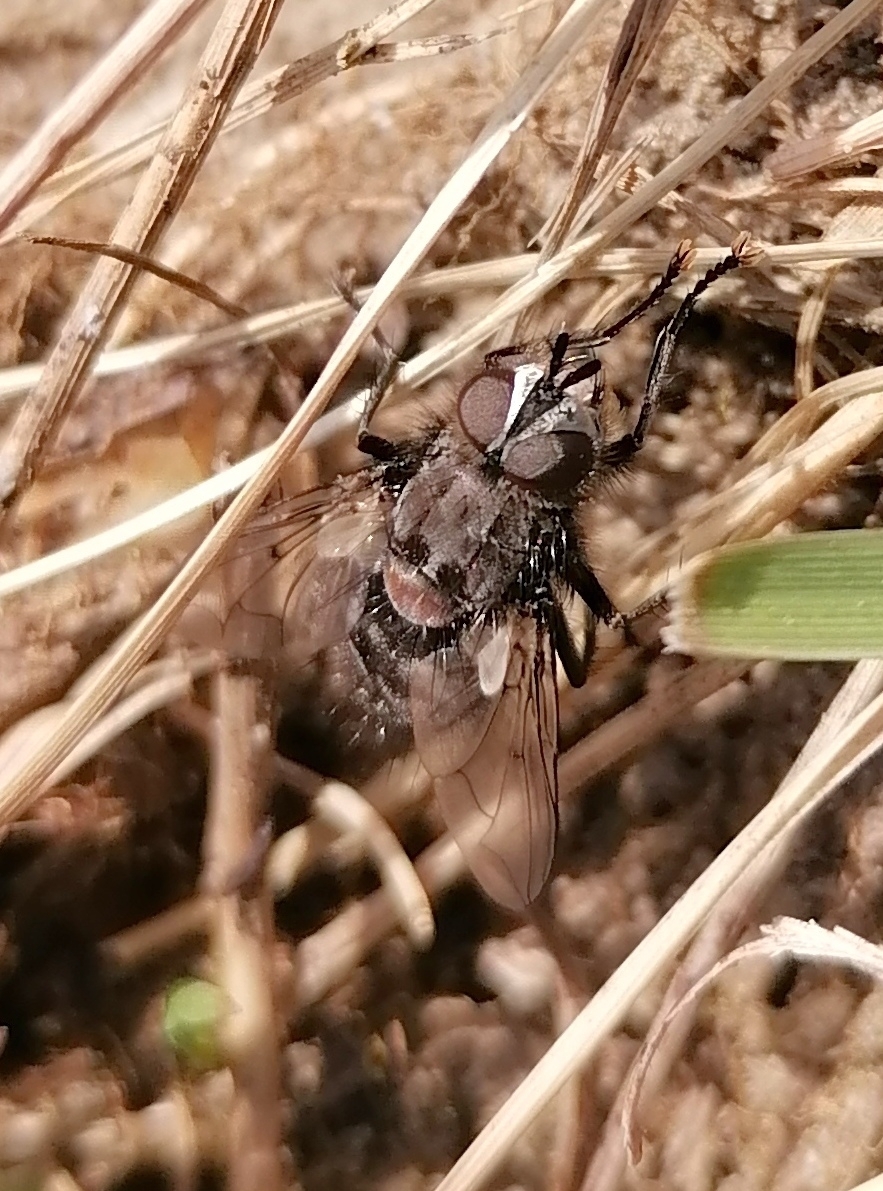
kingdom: Animalia
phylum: Arthropoda
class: Insecta
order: Diptera
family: Tachinidae
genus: Panzeria
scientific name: Panzeria puparum
